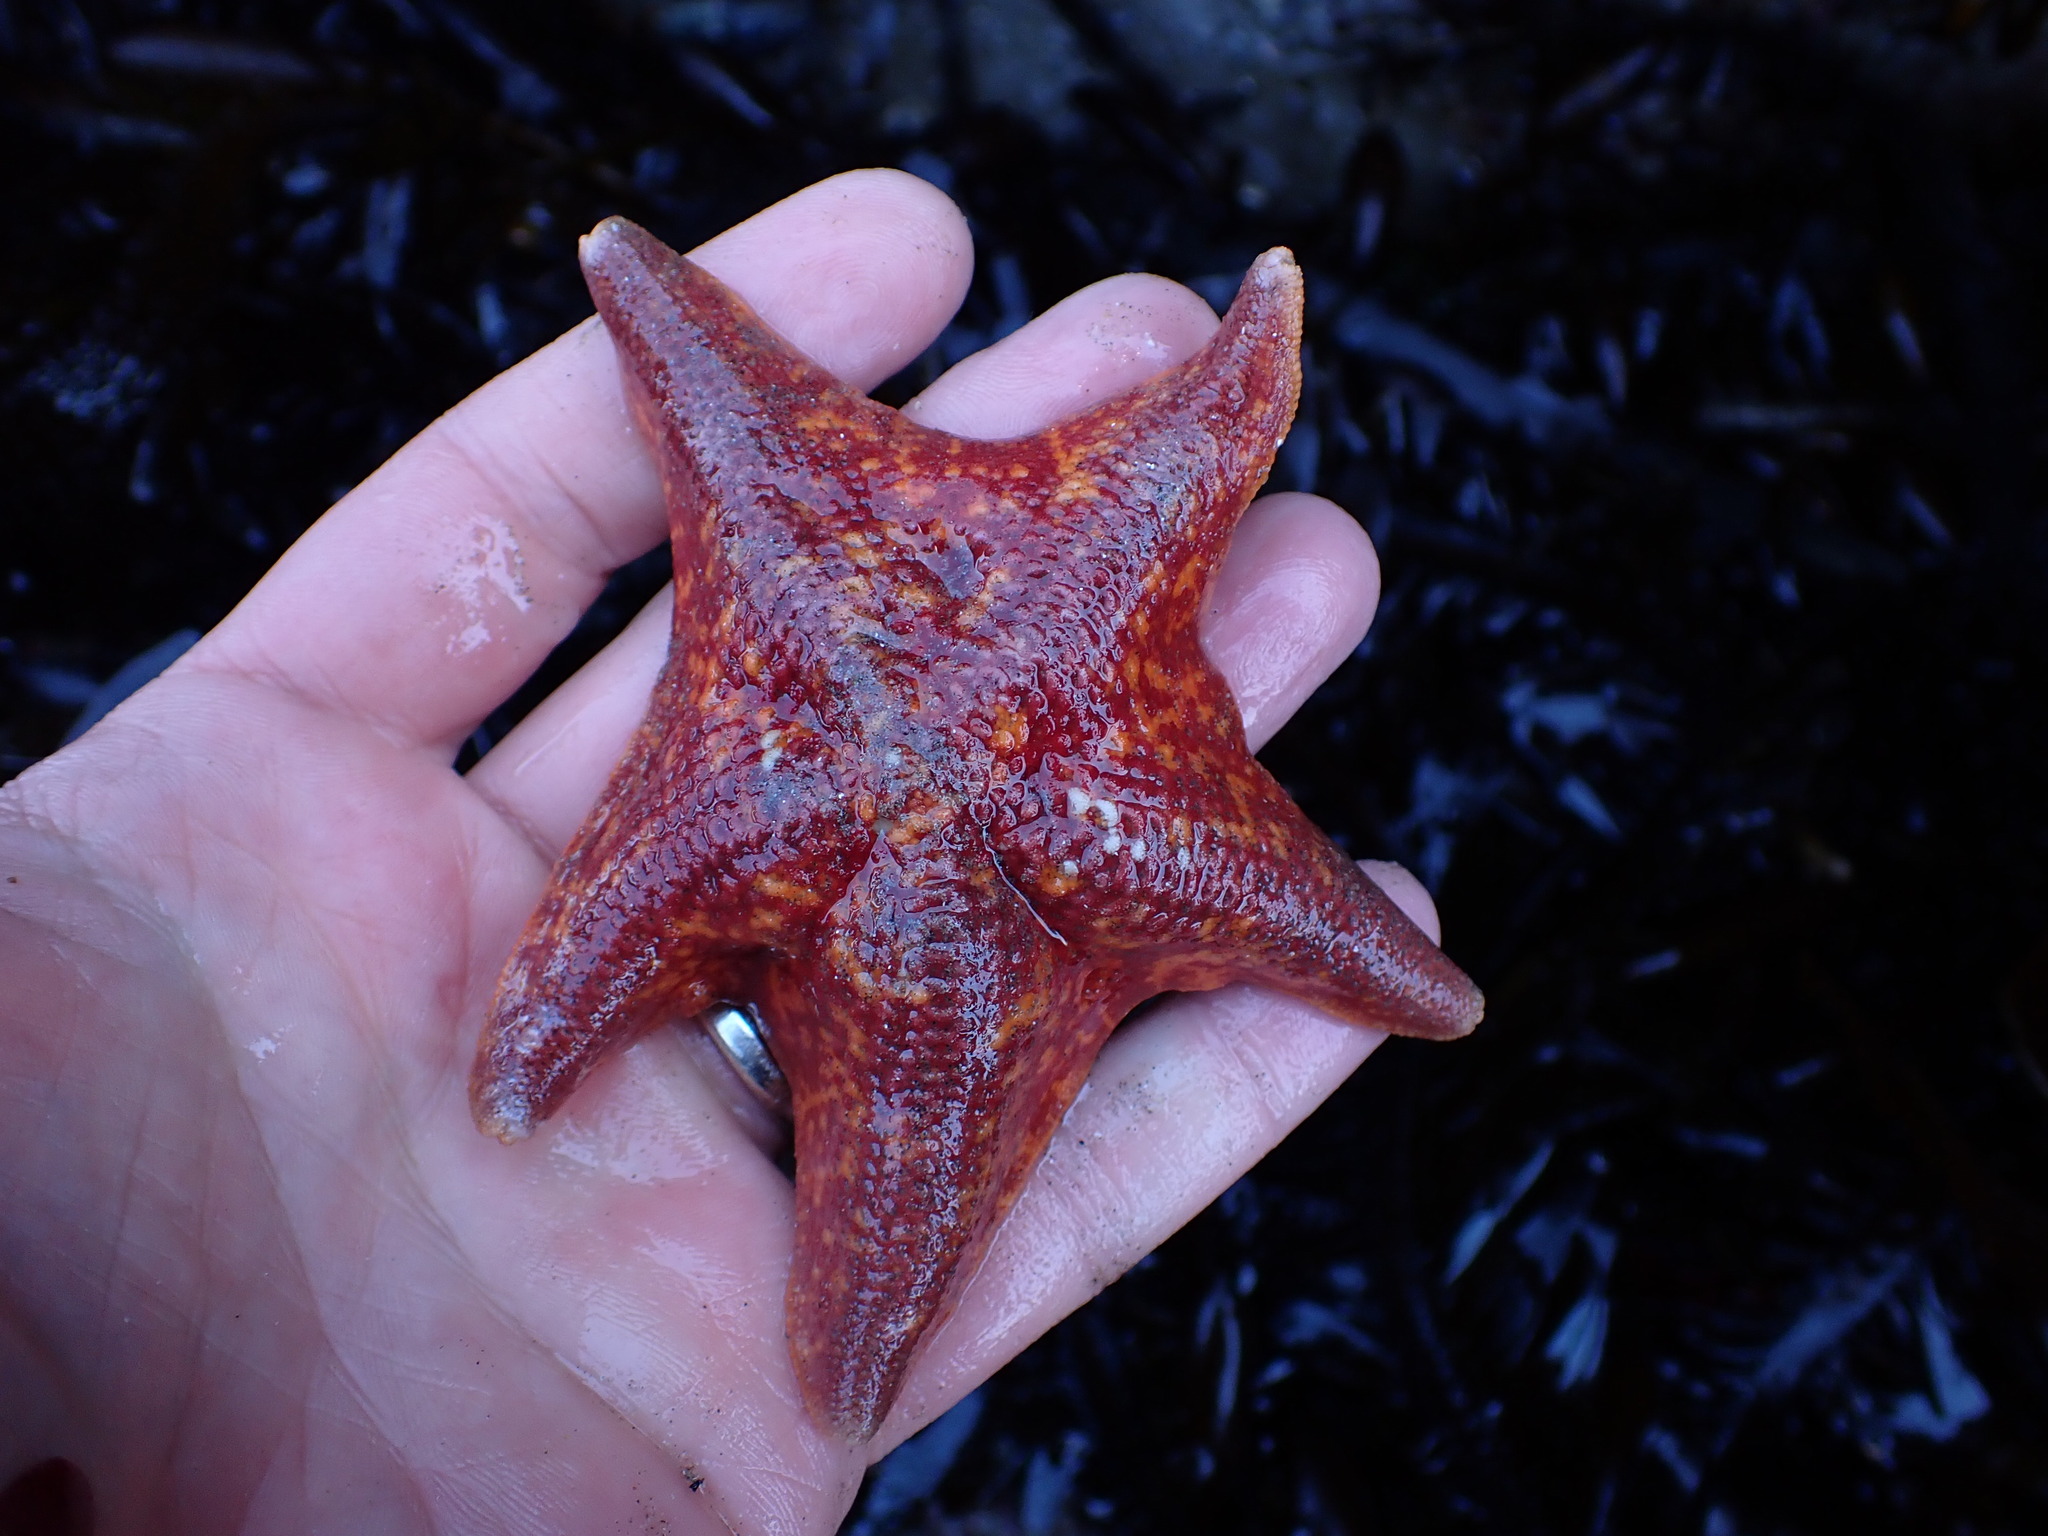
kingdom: Animalia
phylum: Echinodermata
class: Asteroidea
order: Valvatida
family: Asterinidae
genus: Patiria
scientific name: Patiria miniata
